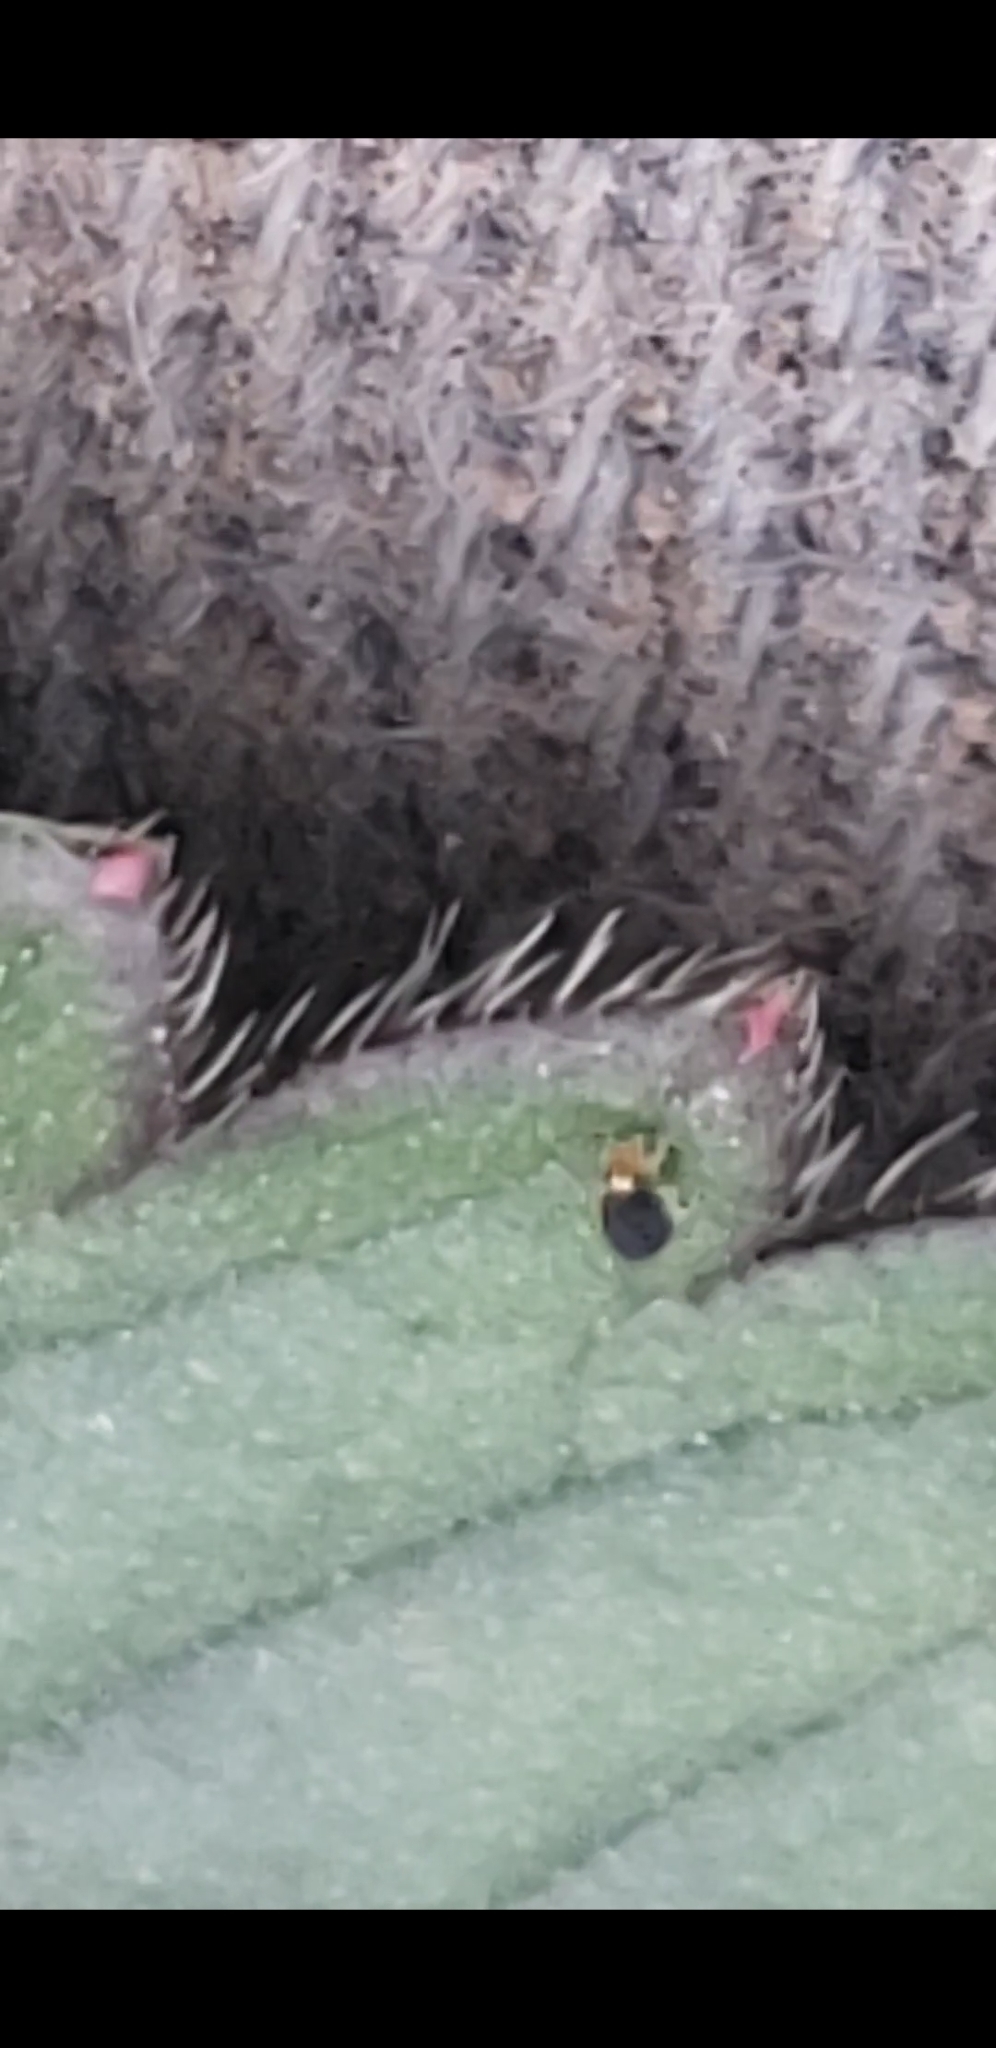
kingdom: Animalia
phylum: Arthropoda
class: Collembola
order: Symphypleona
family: Katiannidae
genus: Sminthurinus
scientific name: Sminthurinus minutus
